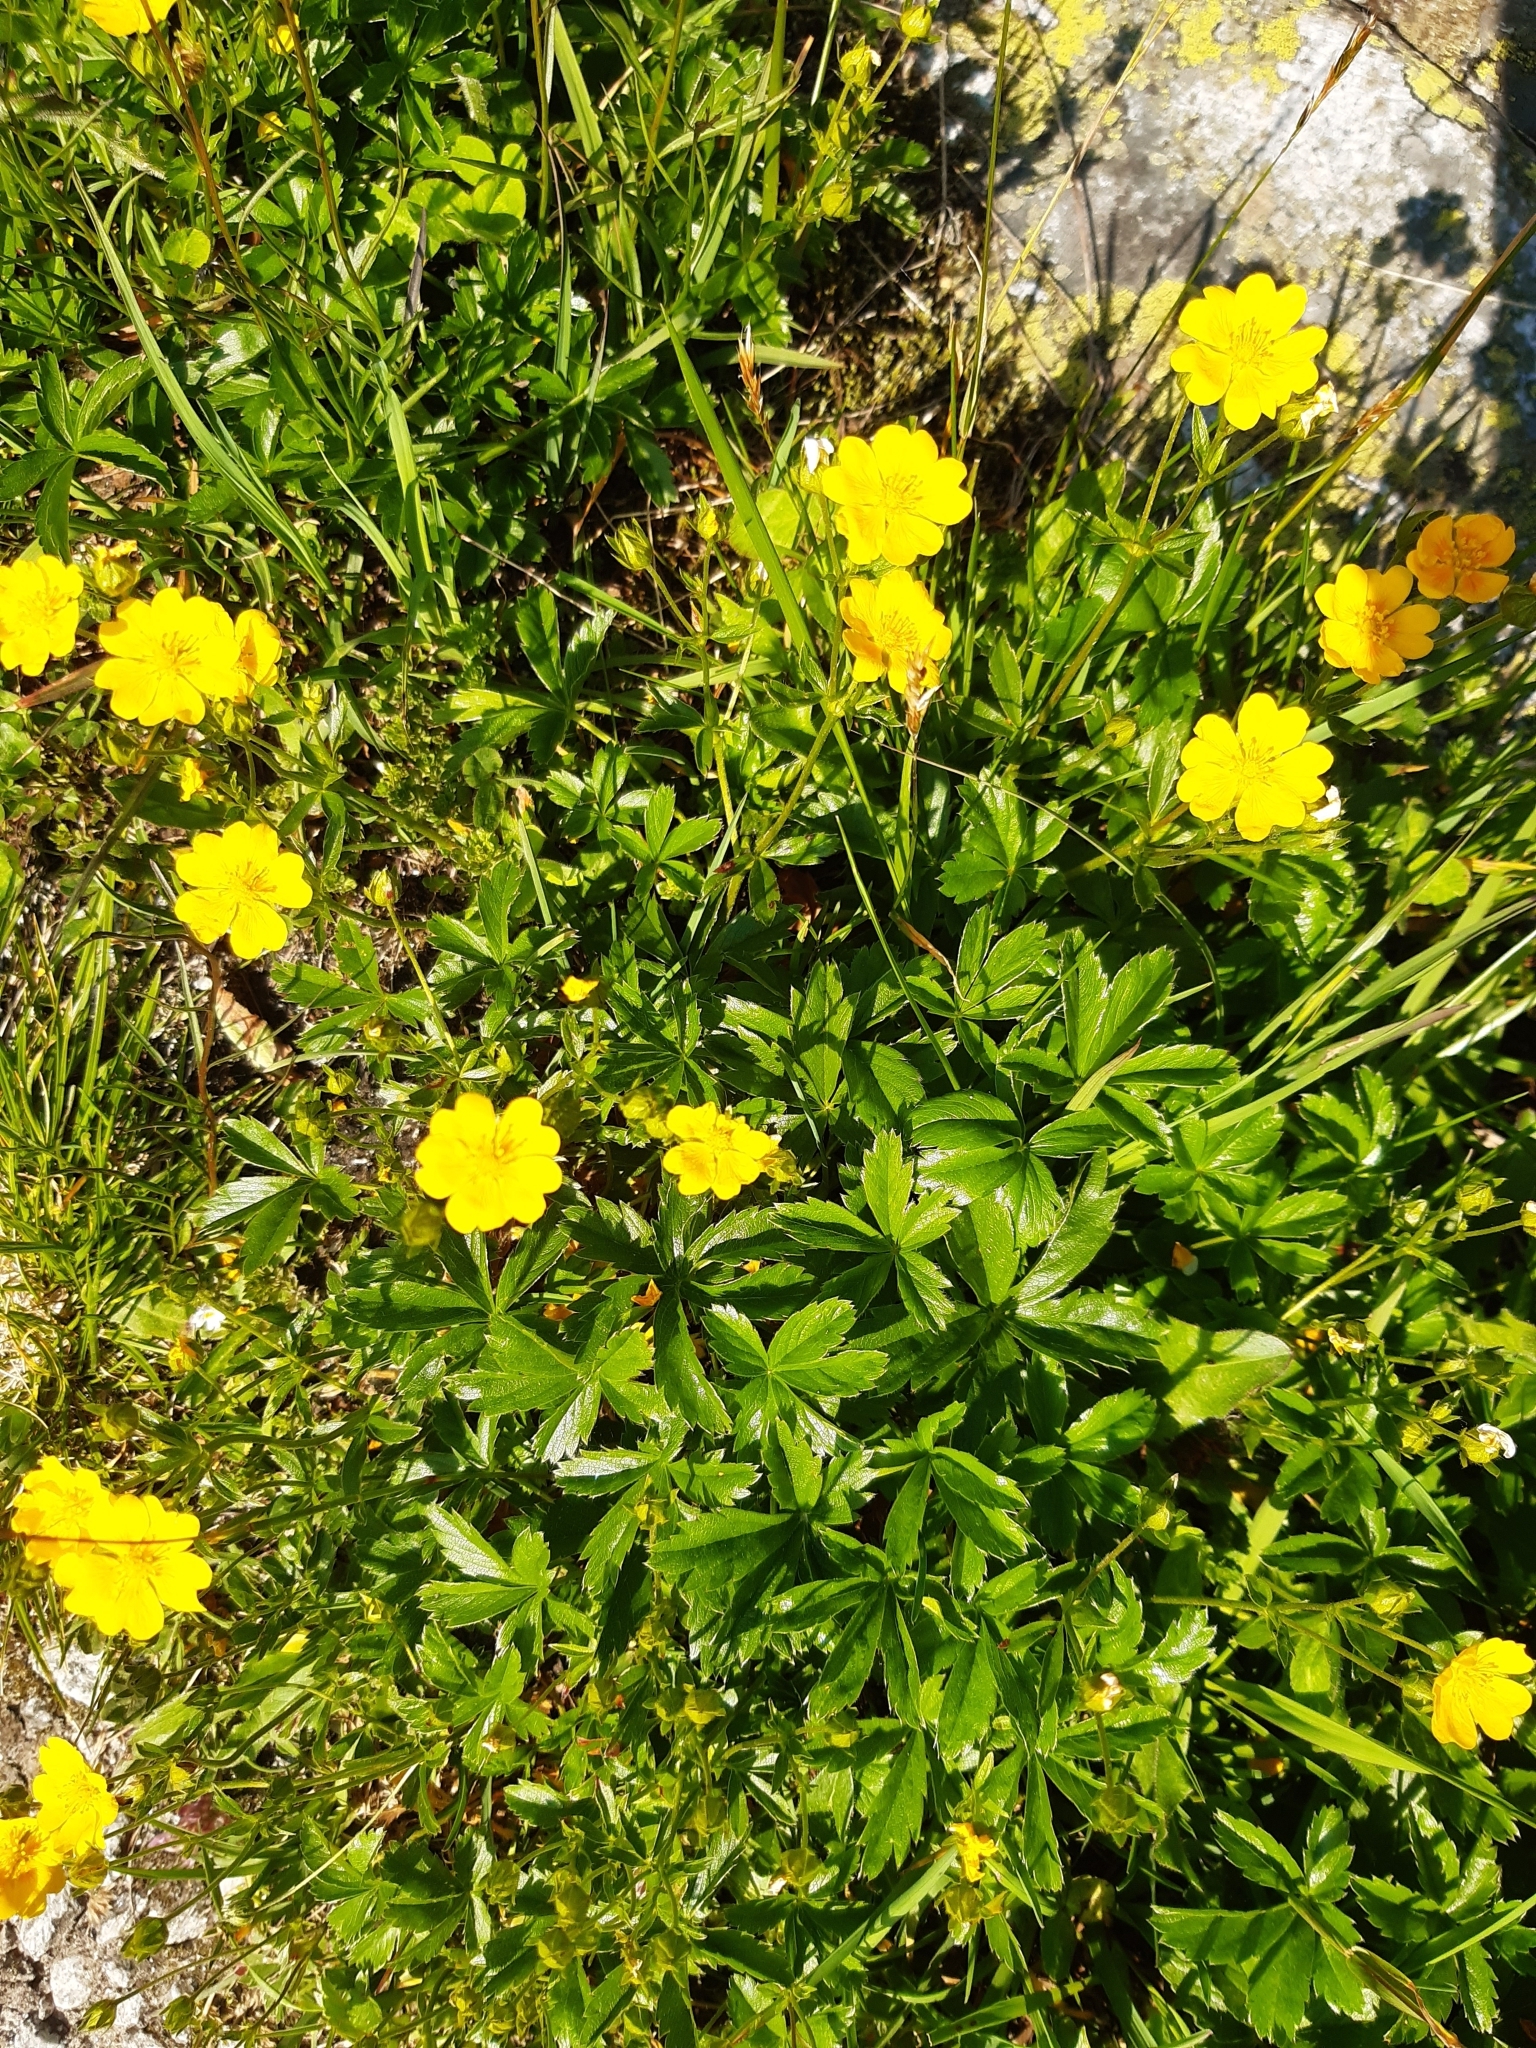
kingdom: Plantae
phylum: Tracheophyta
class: Magnoliopsida
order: Rosales
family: Rosaceae
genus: Potentilla
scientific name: Potentilla aurea
